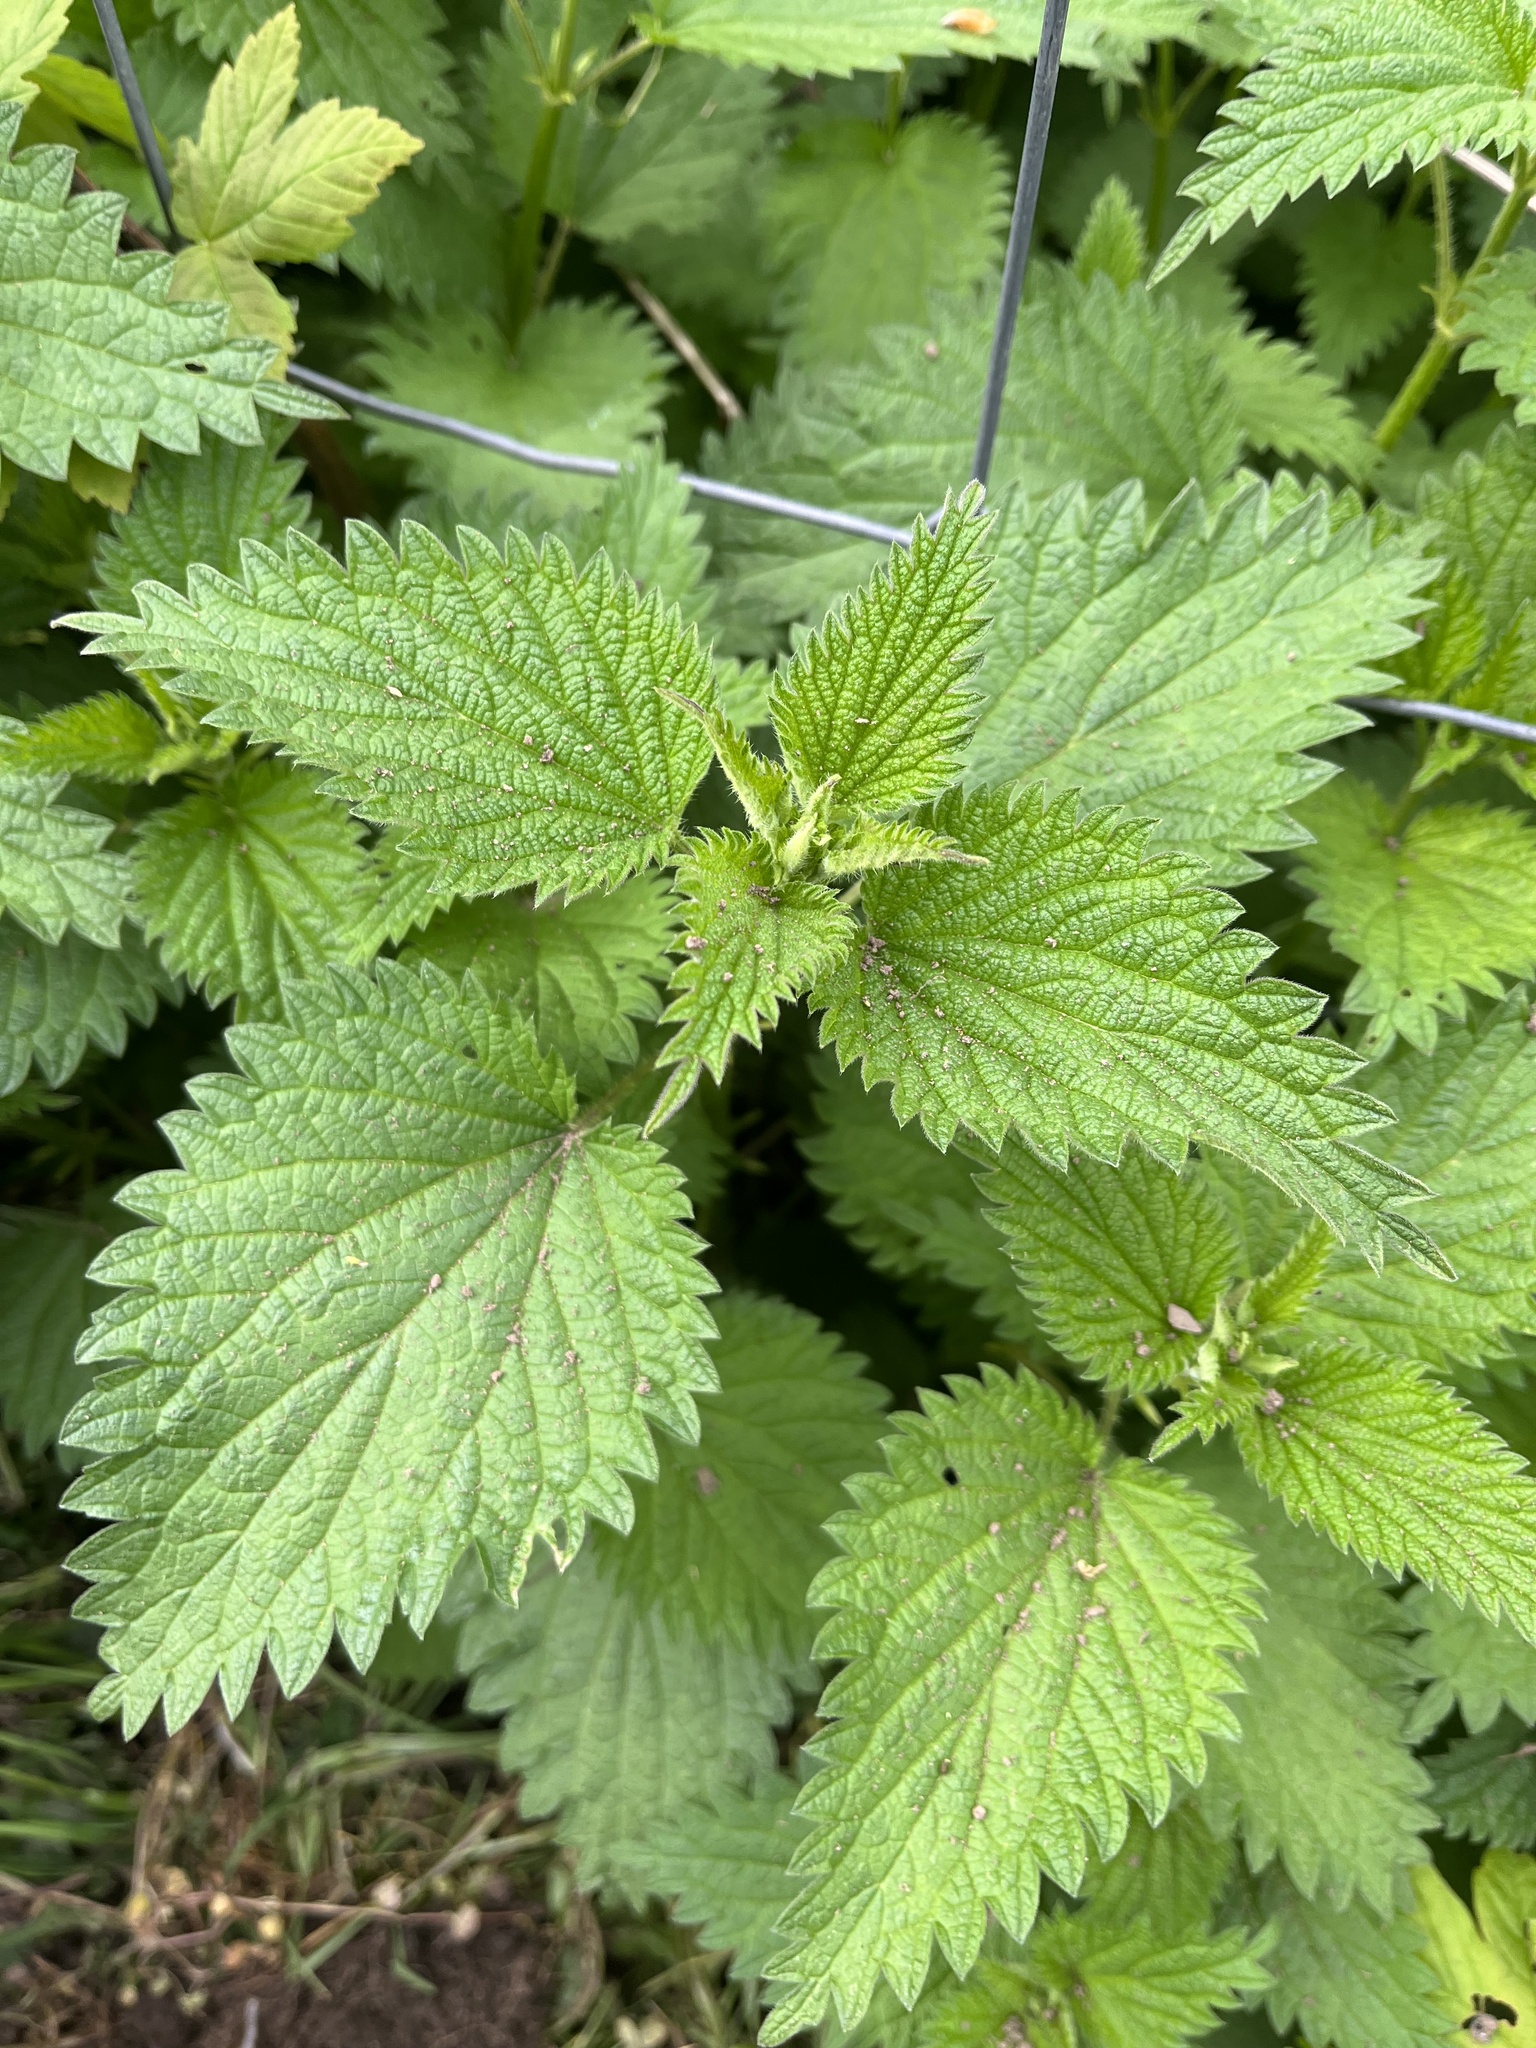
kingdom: Plantae
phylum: Tracheophyta
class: Magnoliopsida
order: Rosales
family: Urticaceae
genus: Urtica
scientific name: Urtica dioica
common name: Common nettle
